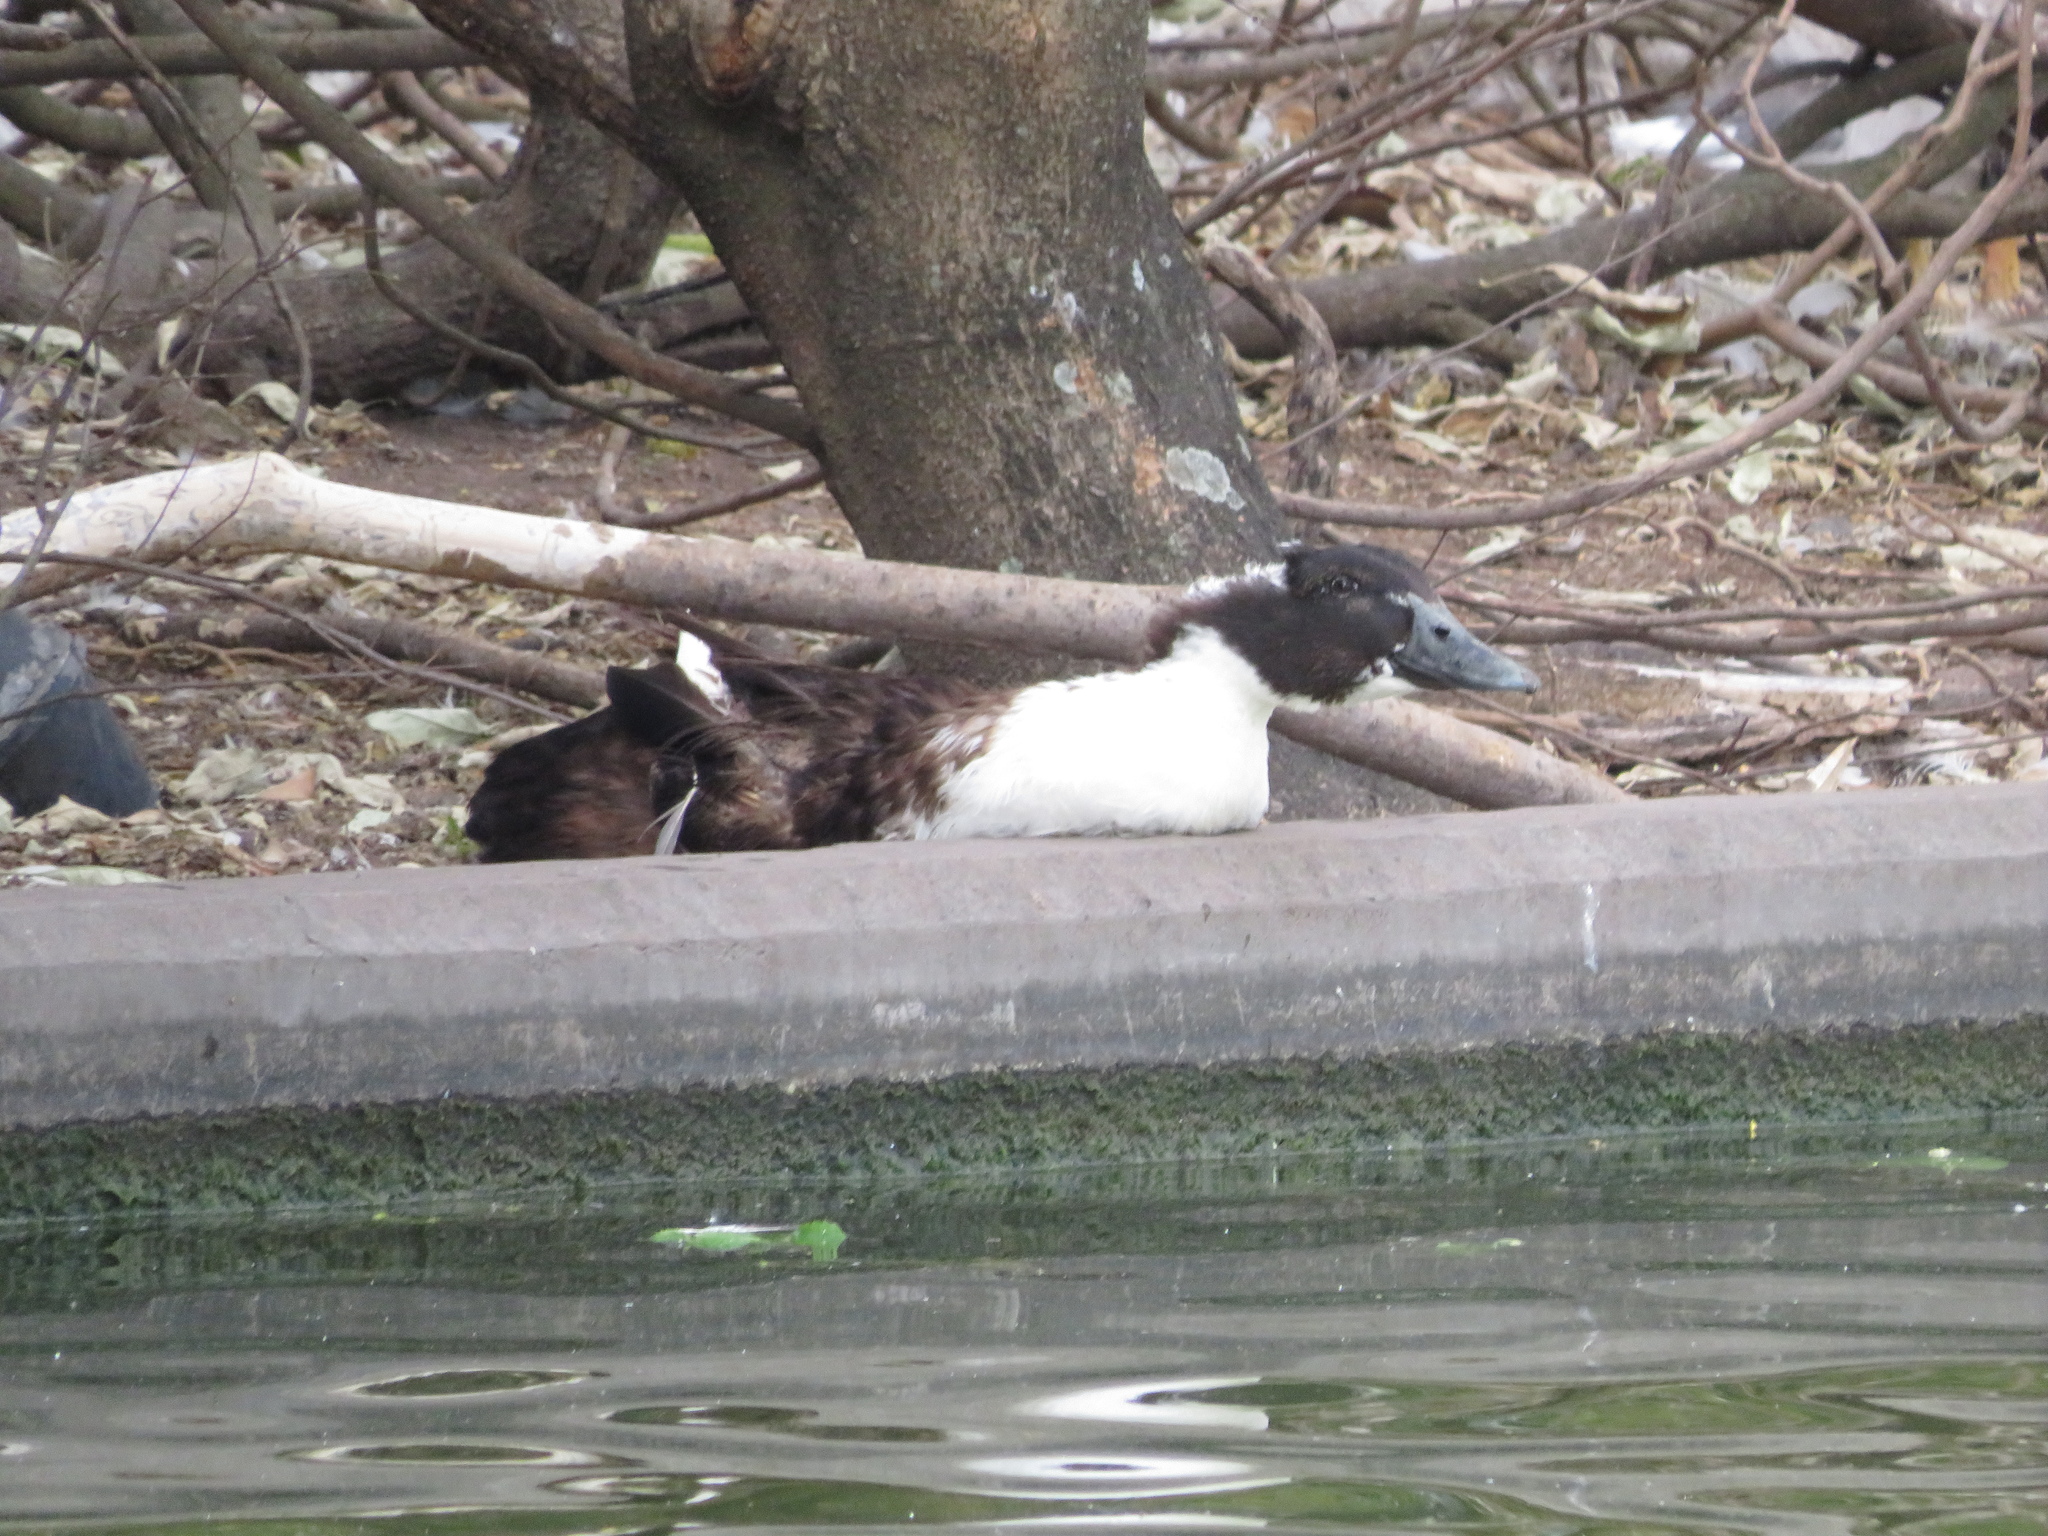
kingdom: Animalia
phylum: Chordata
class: Aves
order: Anseriformes
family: Anatidae
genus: Anas
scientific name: Anas platyrhynchos
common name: Mallard
